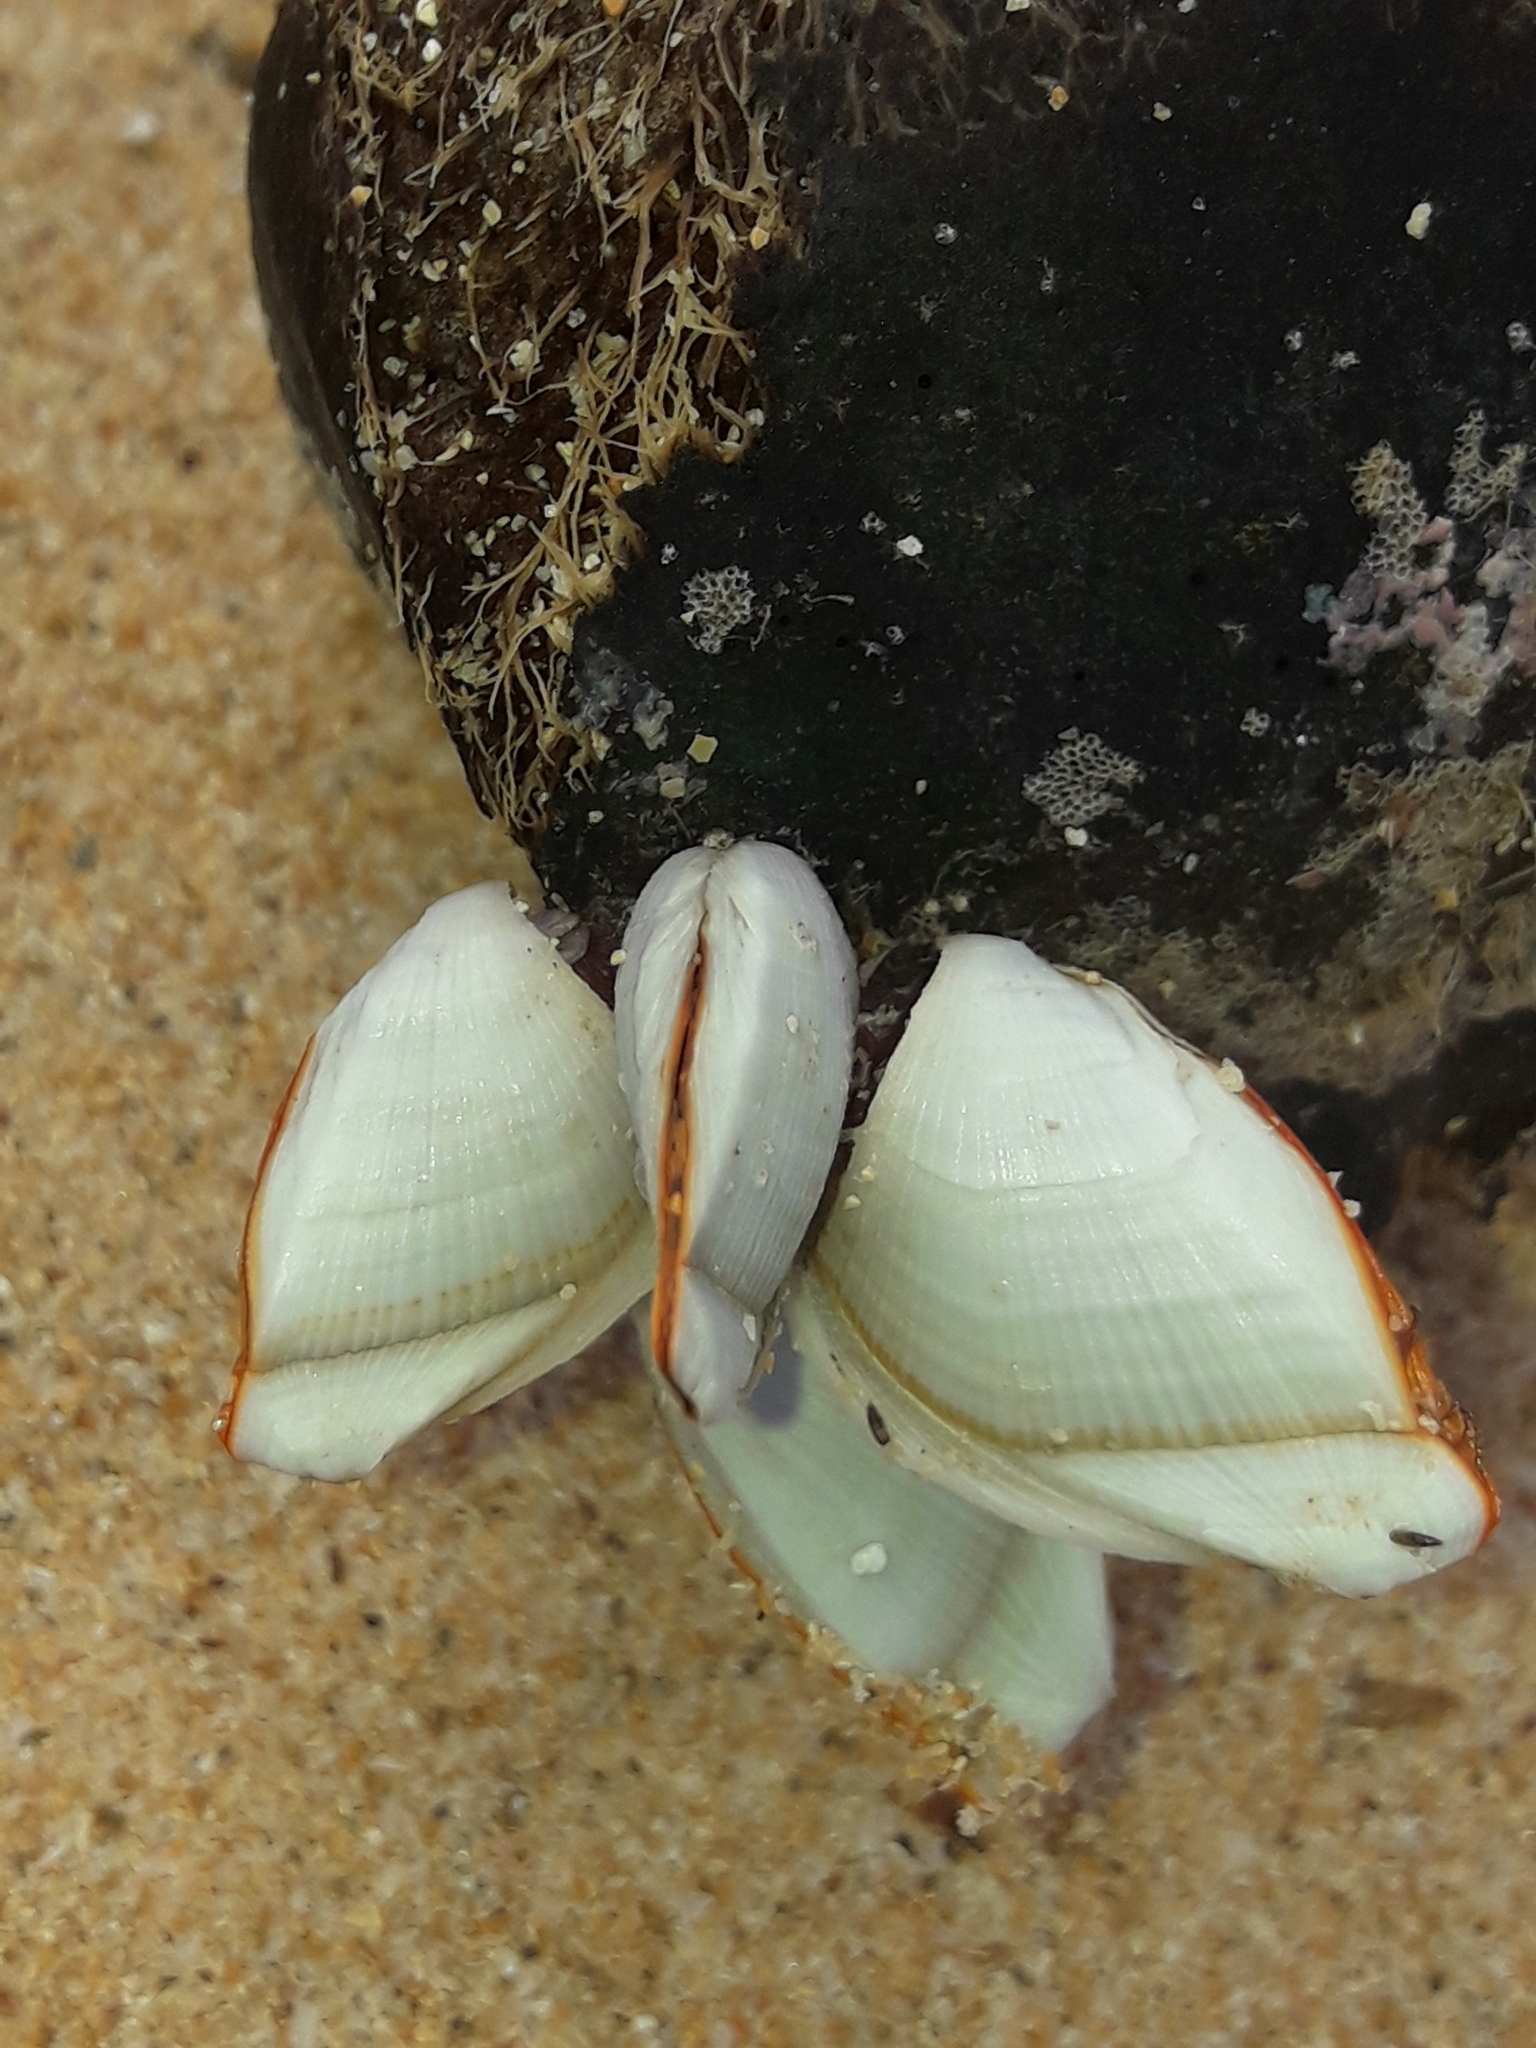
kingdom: Animalia
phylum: Arthropoda
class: Maxillopoda
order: Pedunculata
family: Lepadidae
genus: Lepas
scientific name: Lepas anserifera
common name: Goose barnacle
